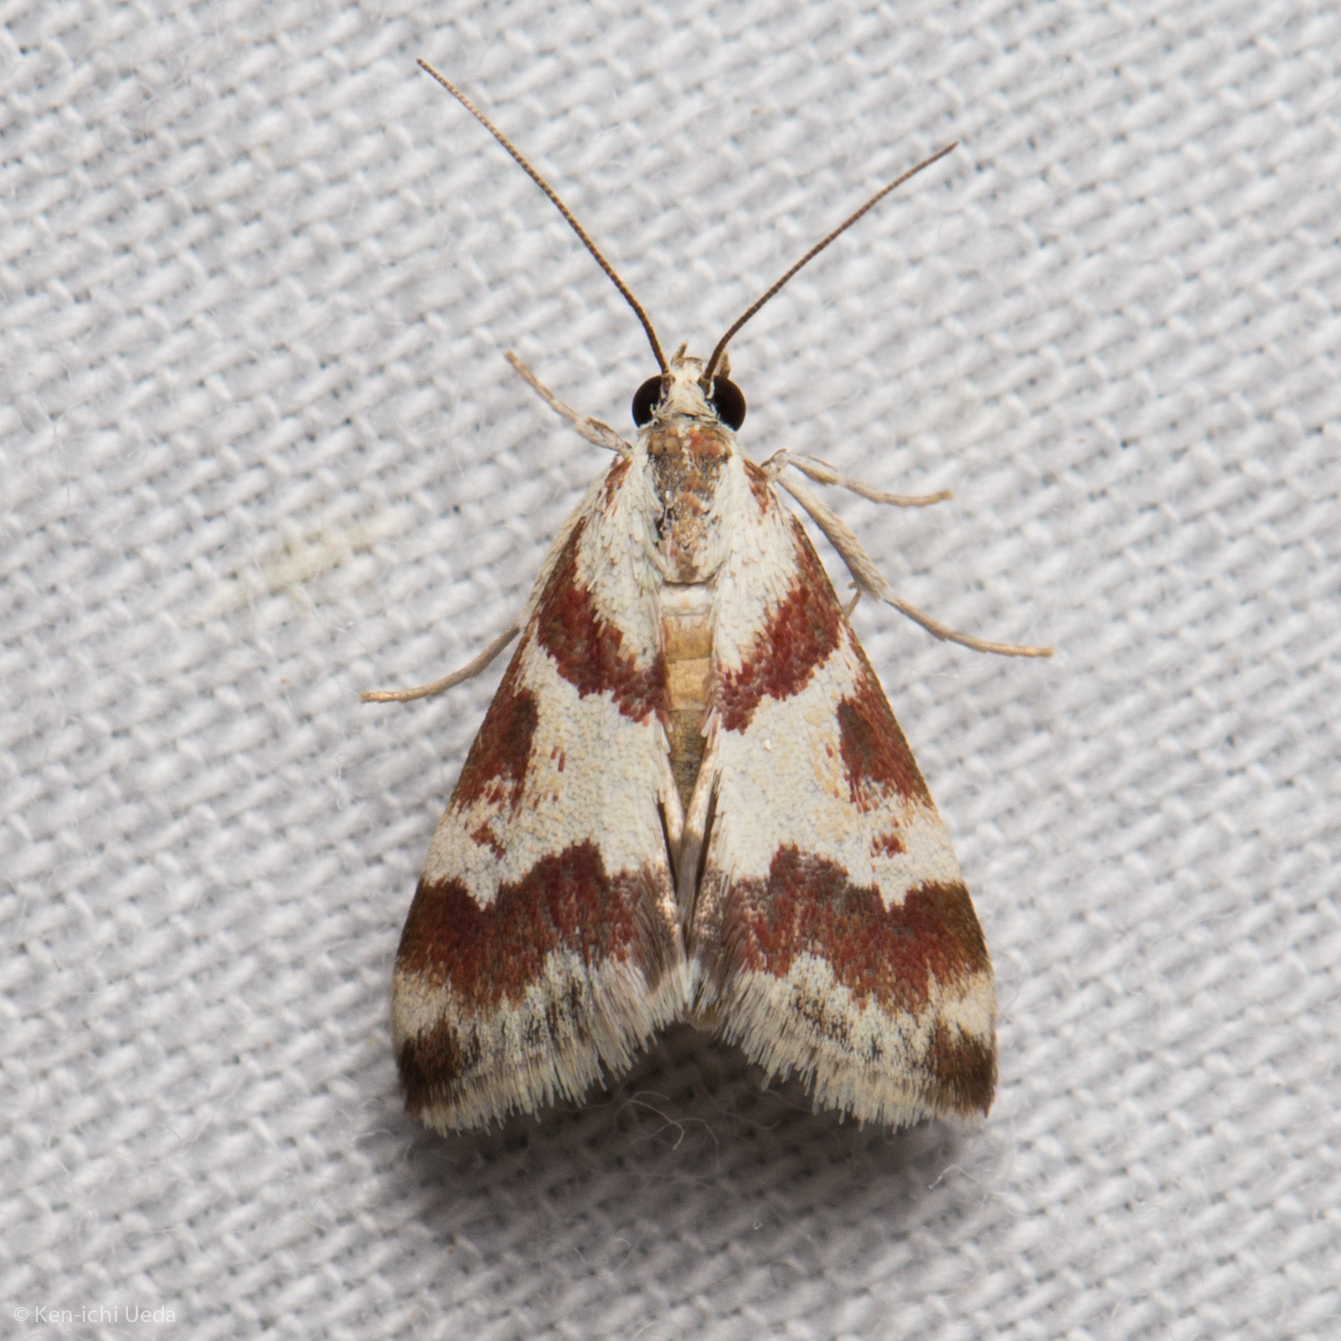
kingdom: Animalia
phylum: Arthropoda
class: Insecta
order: Lepidoptera
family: Crambidae
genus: Noctuelia
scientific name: Noctuelia Mimoschinia rufofascialis
